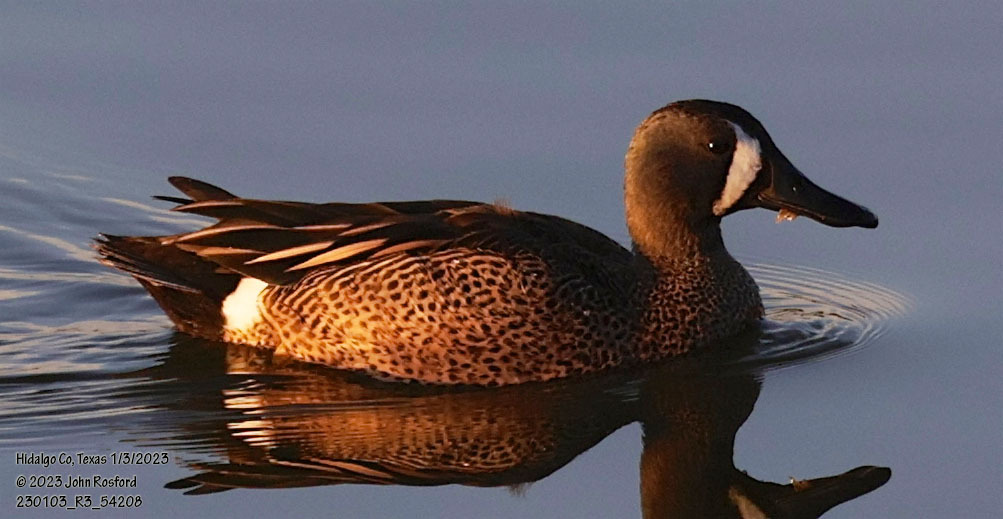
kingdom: Animalia
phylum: Chordata
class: Aves
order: Anseriformes
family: Anatidae
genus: Spatula
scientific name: Spatula discors
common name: Blue-winged teal
